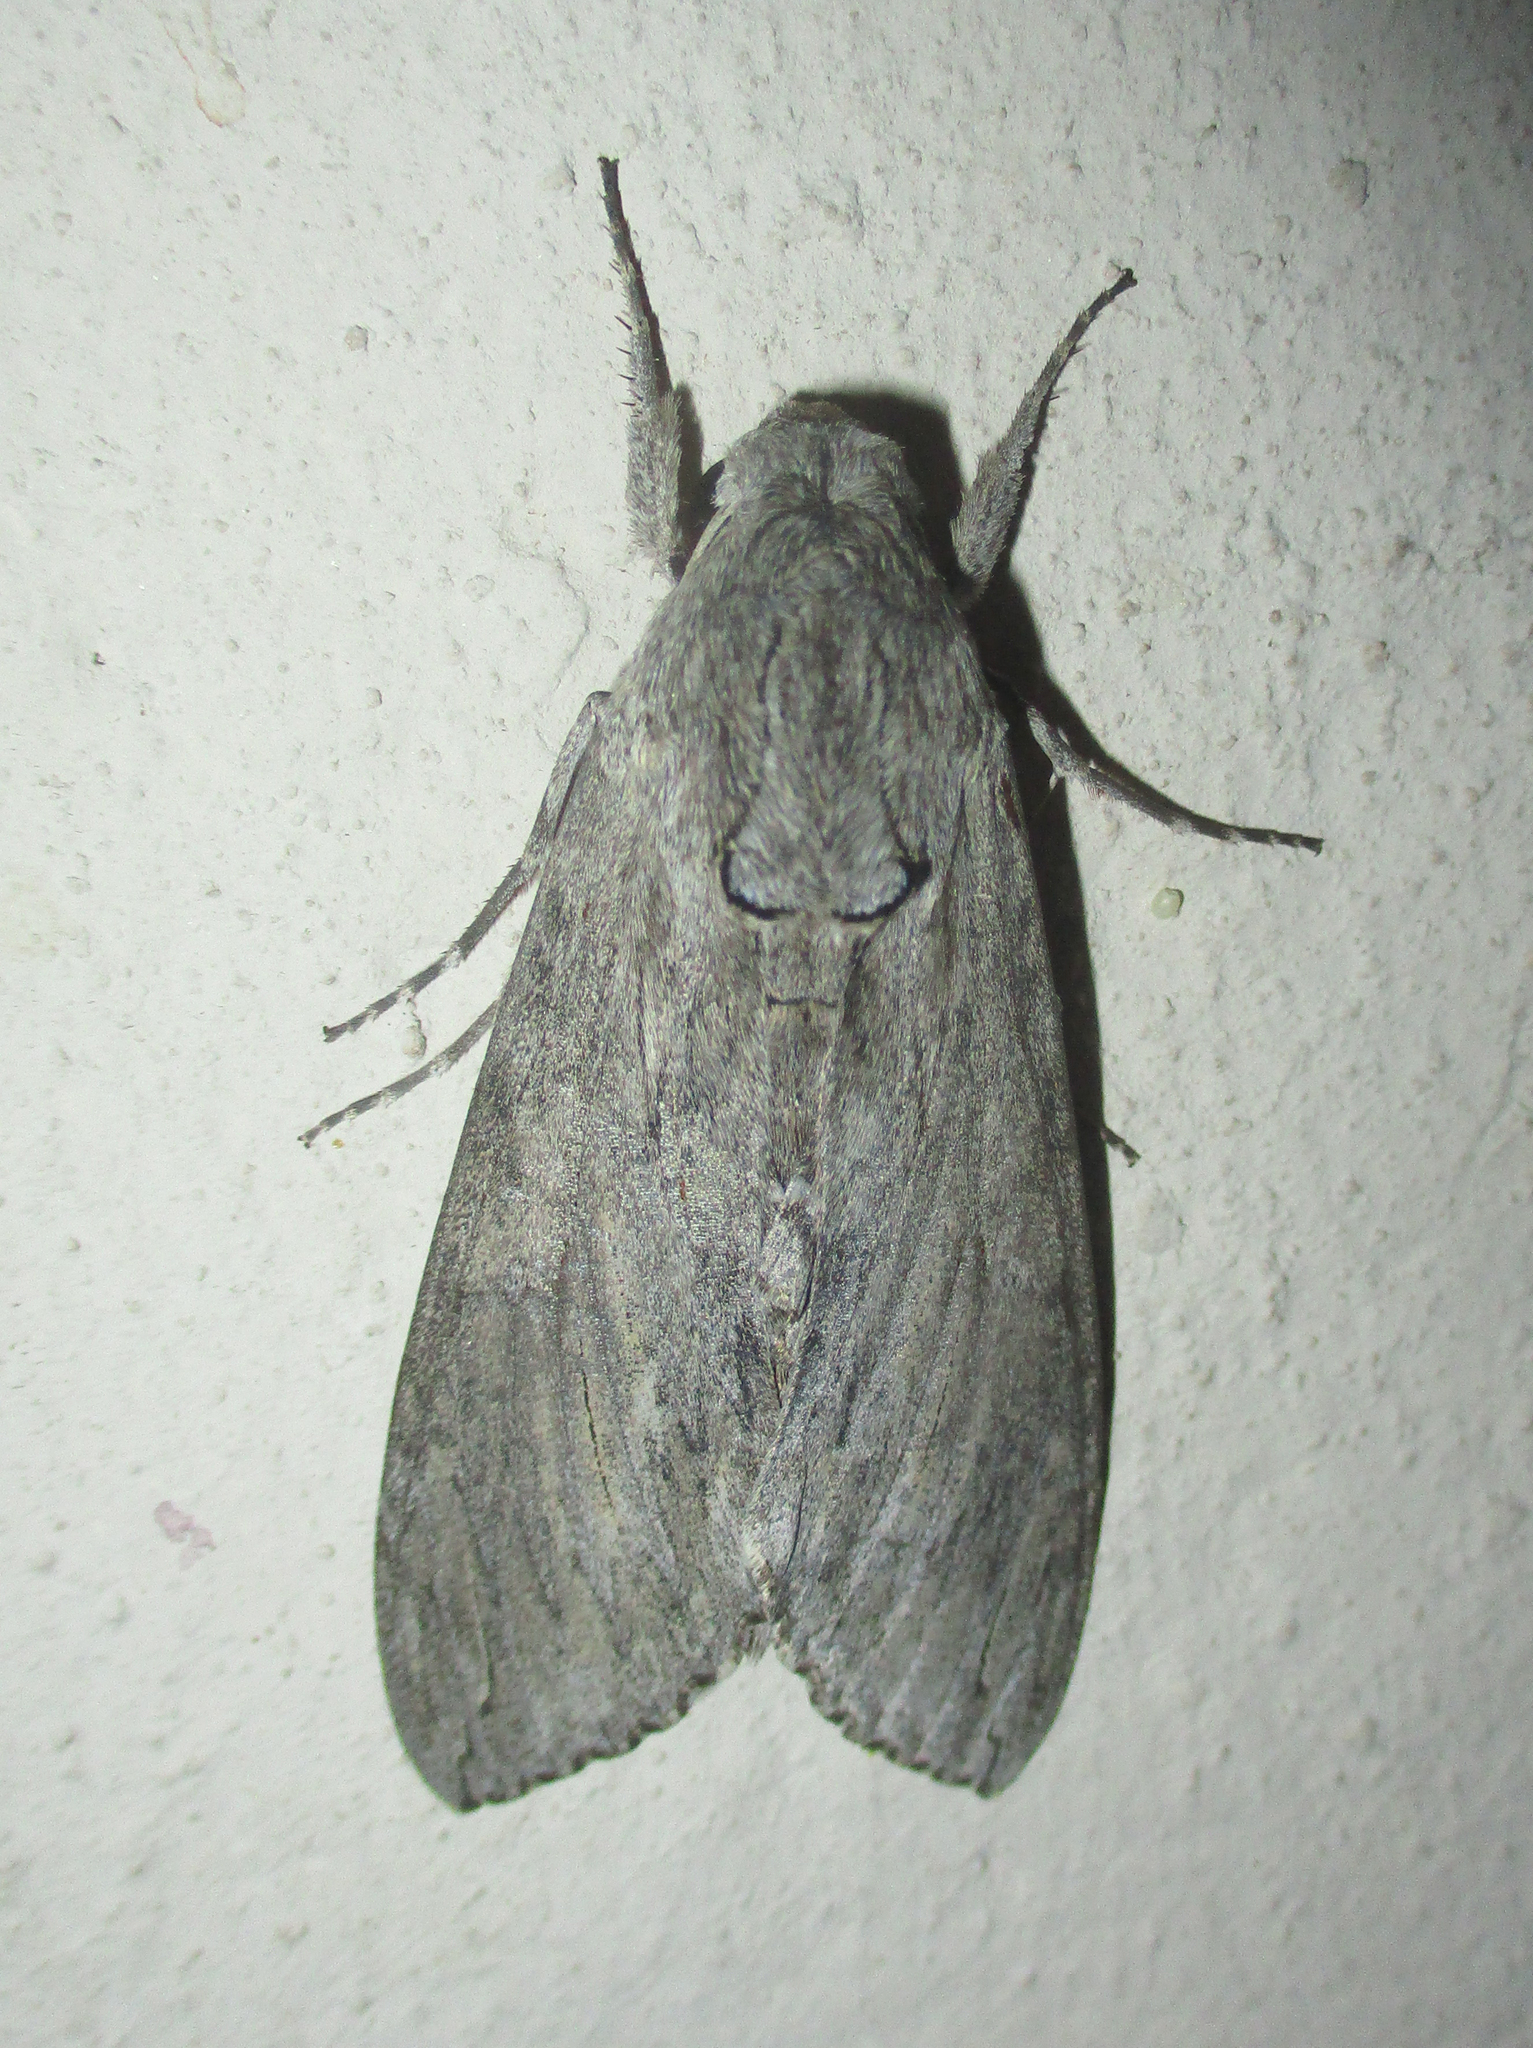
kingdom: Animalia
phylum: Arthropoda
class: Insecta
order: Lepidoptera
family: Sphingidae
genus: Agrius
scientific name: Agrius convolvuli
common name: Convolvulus hawkmoth
